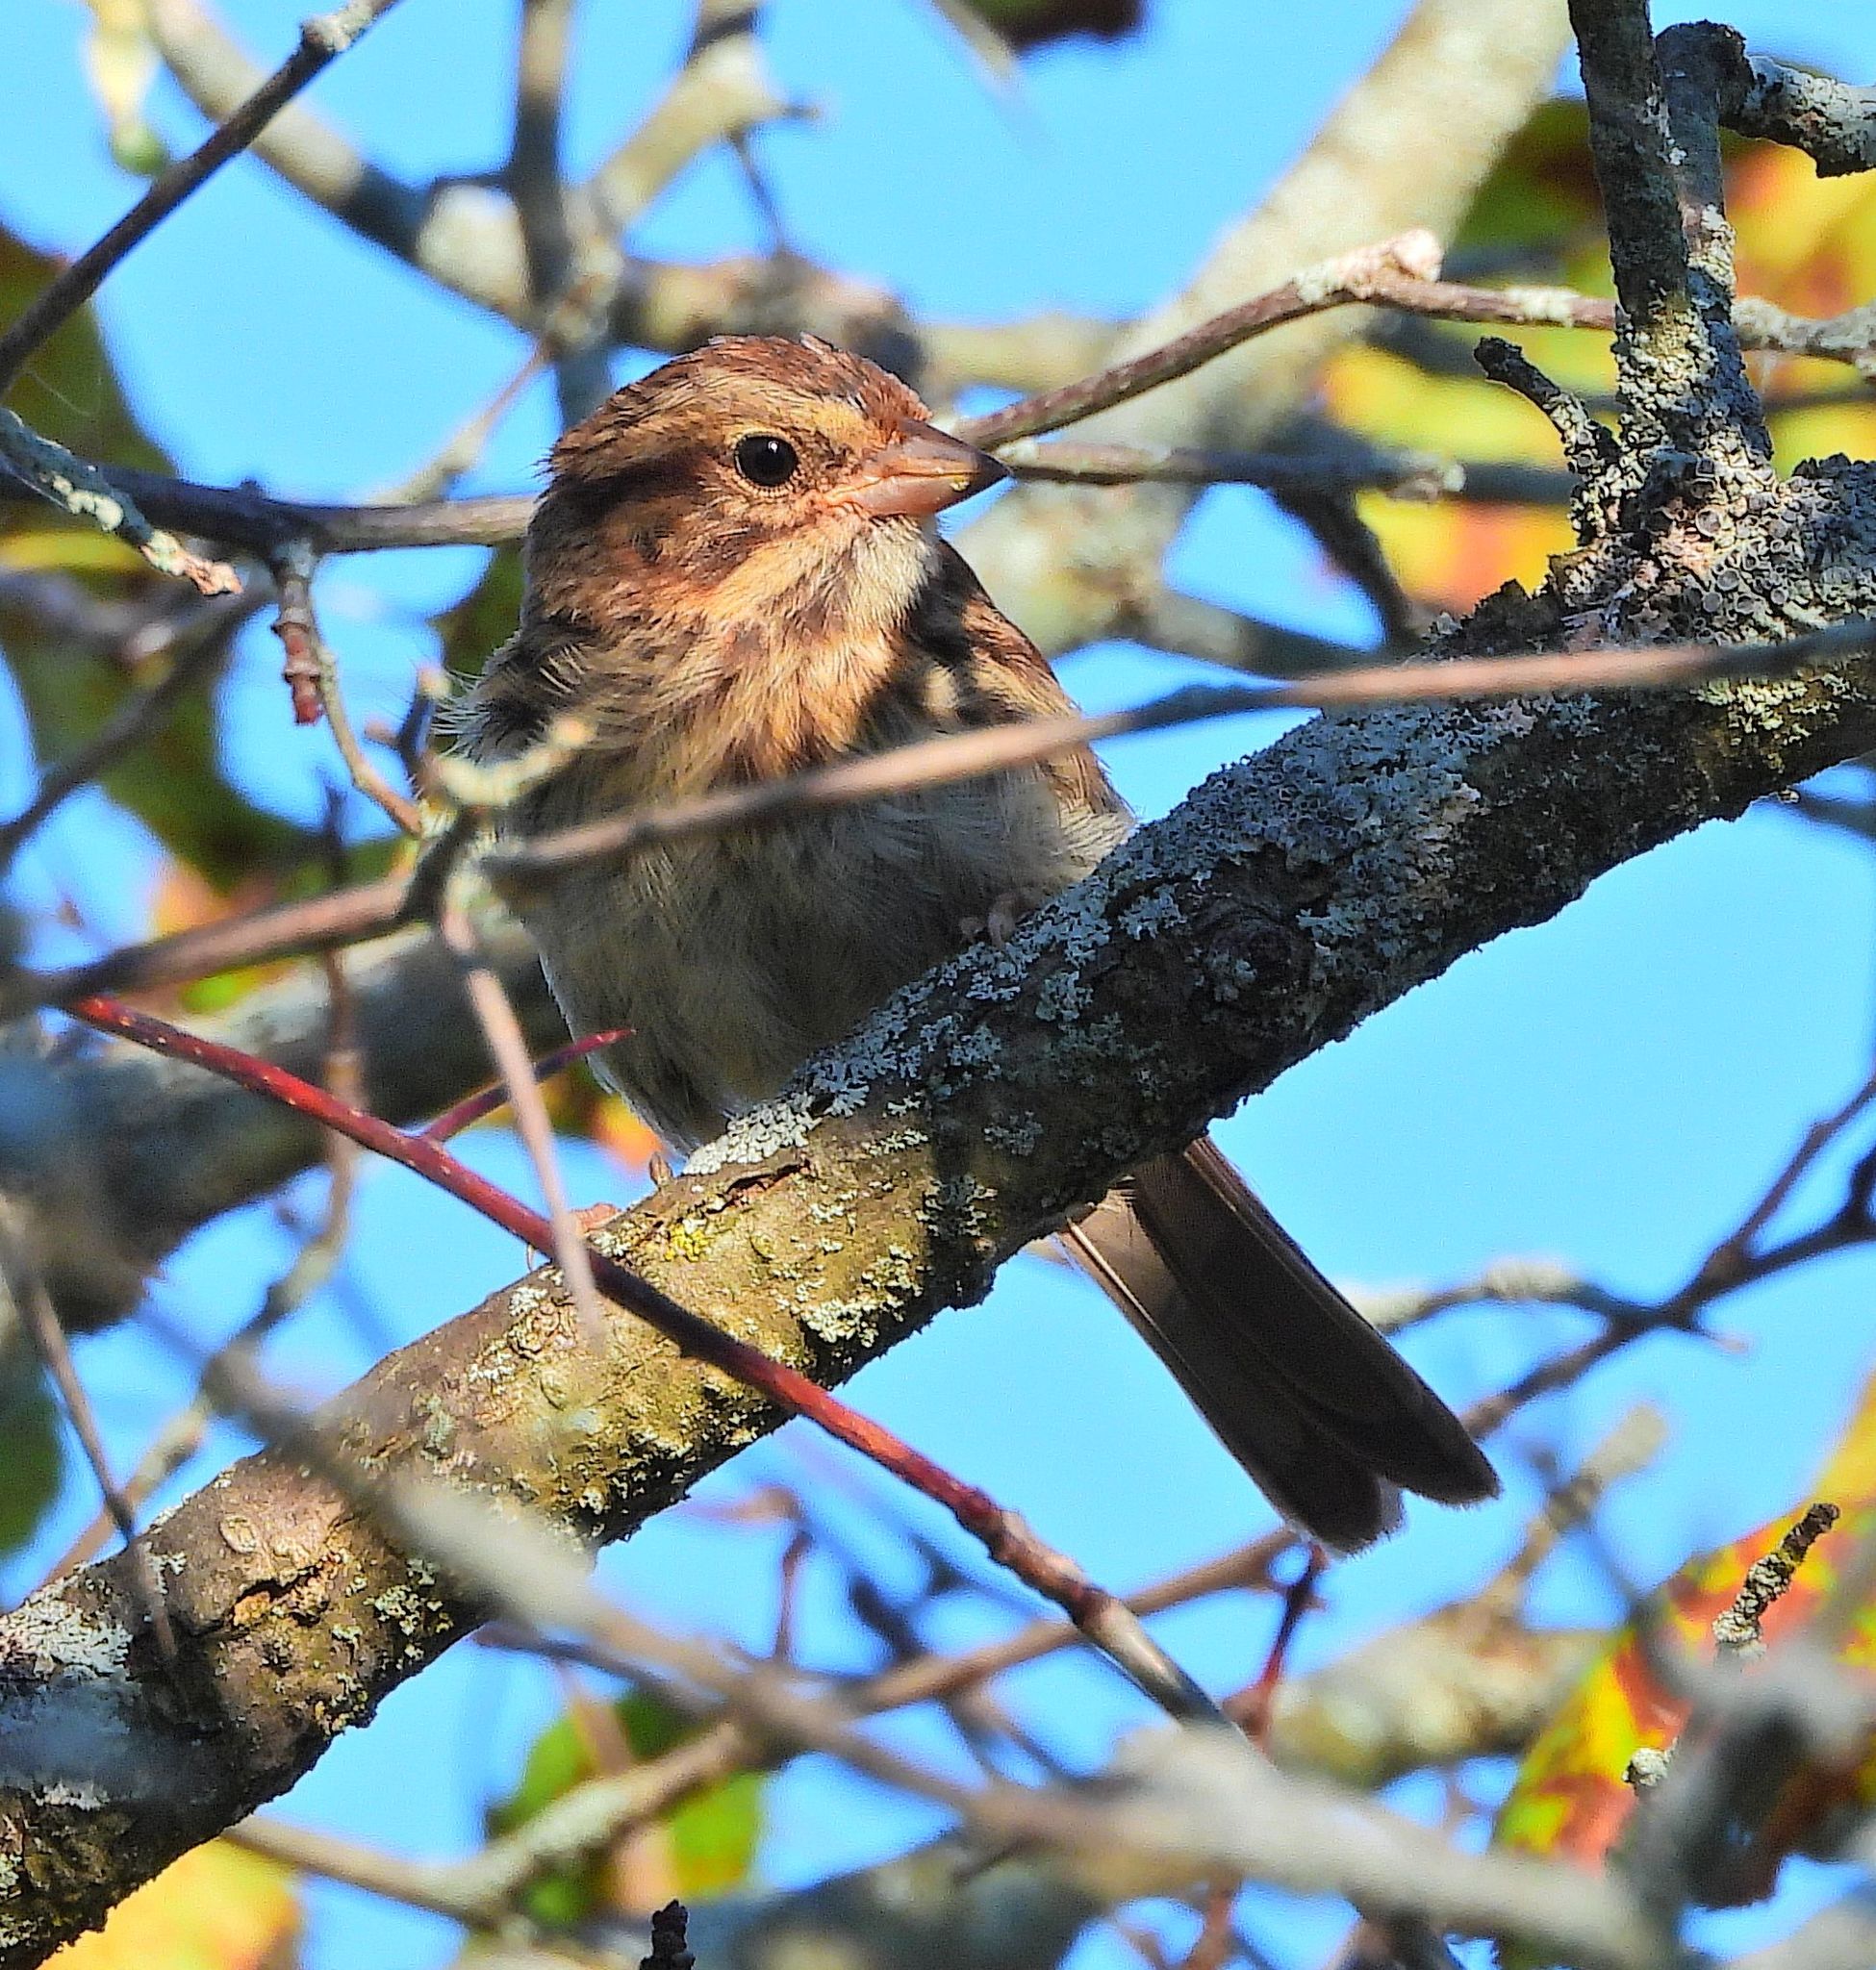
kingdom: Animalia
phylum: Chordata
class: Aves
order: Passeriformes
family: Passerellidae
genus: Melospiza
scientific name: Melospiza melodia
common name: Song sparrow
